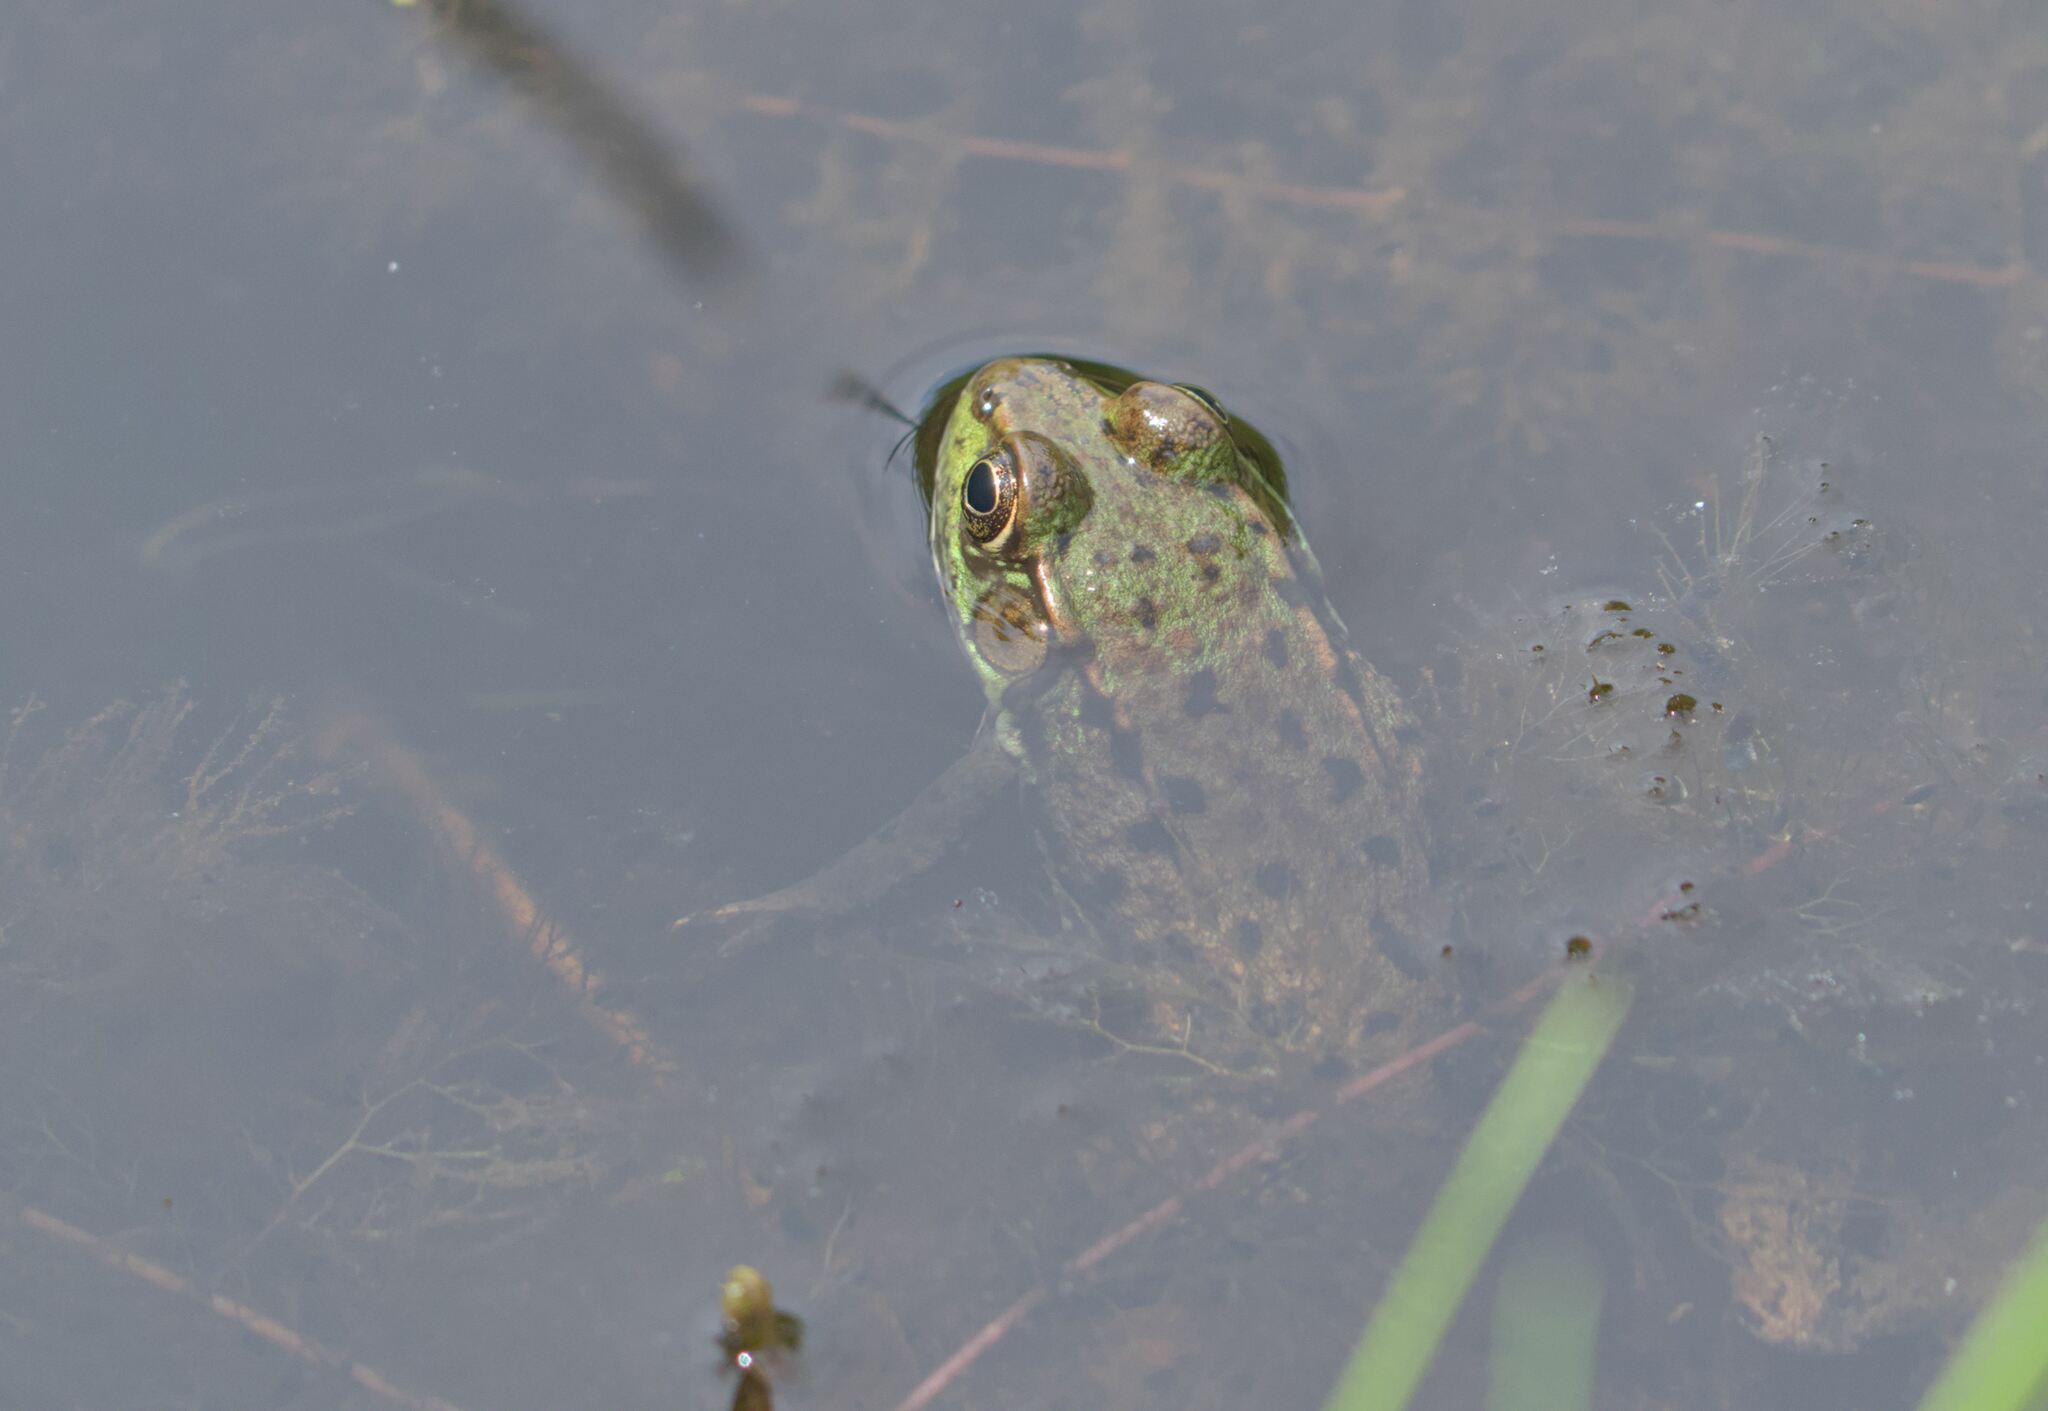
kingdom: Animalia
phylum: Chordata
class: Amphibia
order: Anura
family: Ranidae
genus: Lithobates
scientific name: Lithobates clamitans
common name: Green frog
